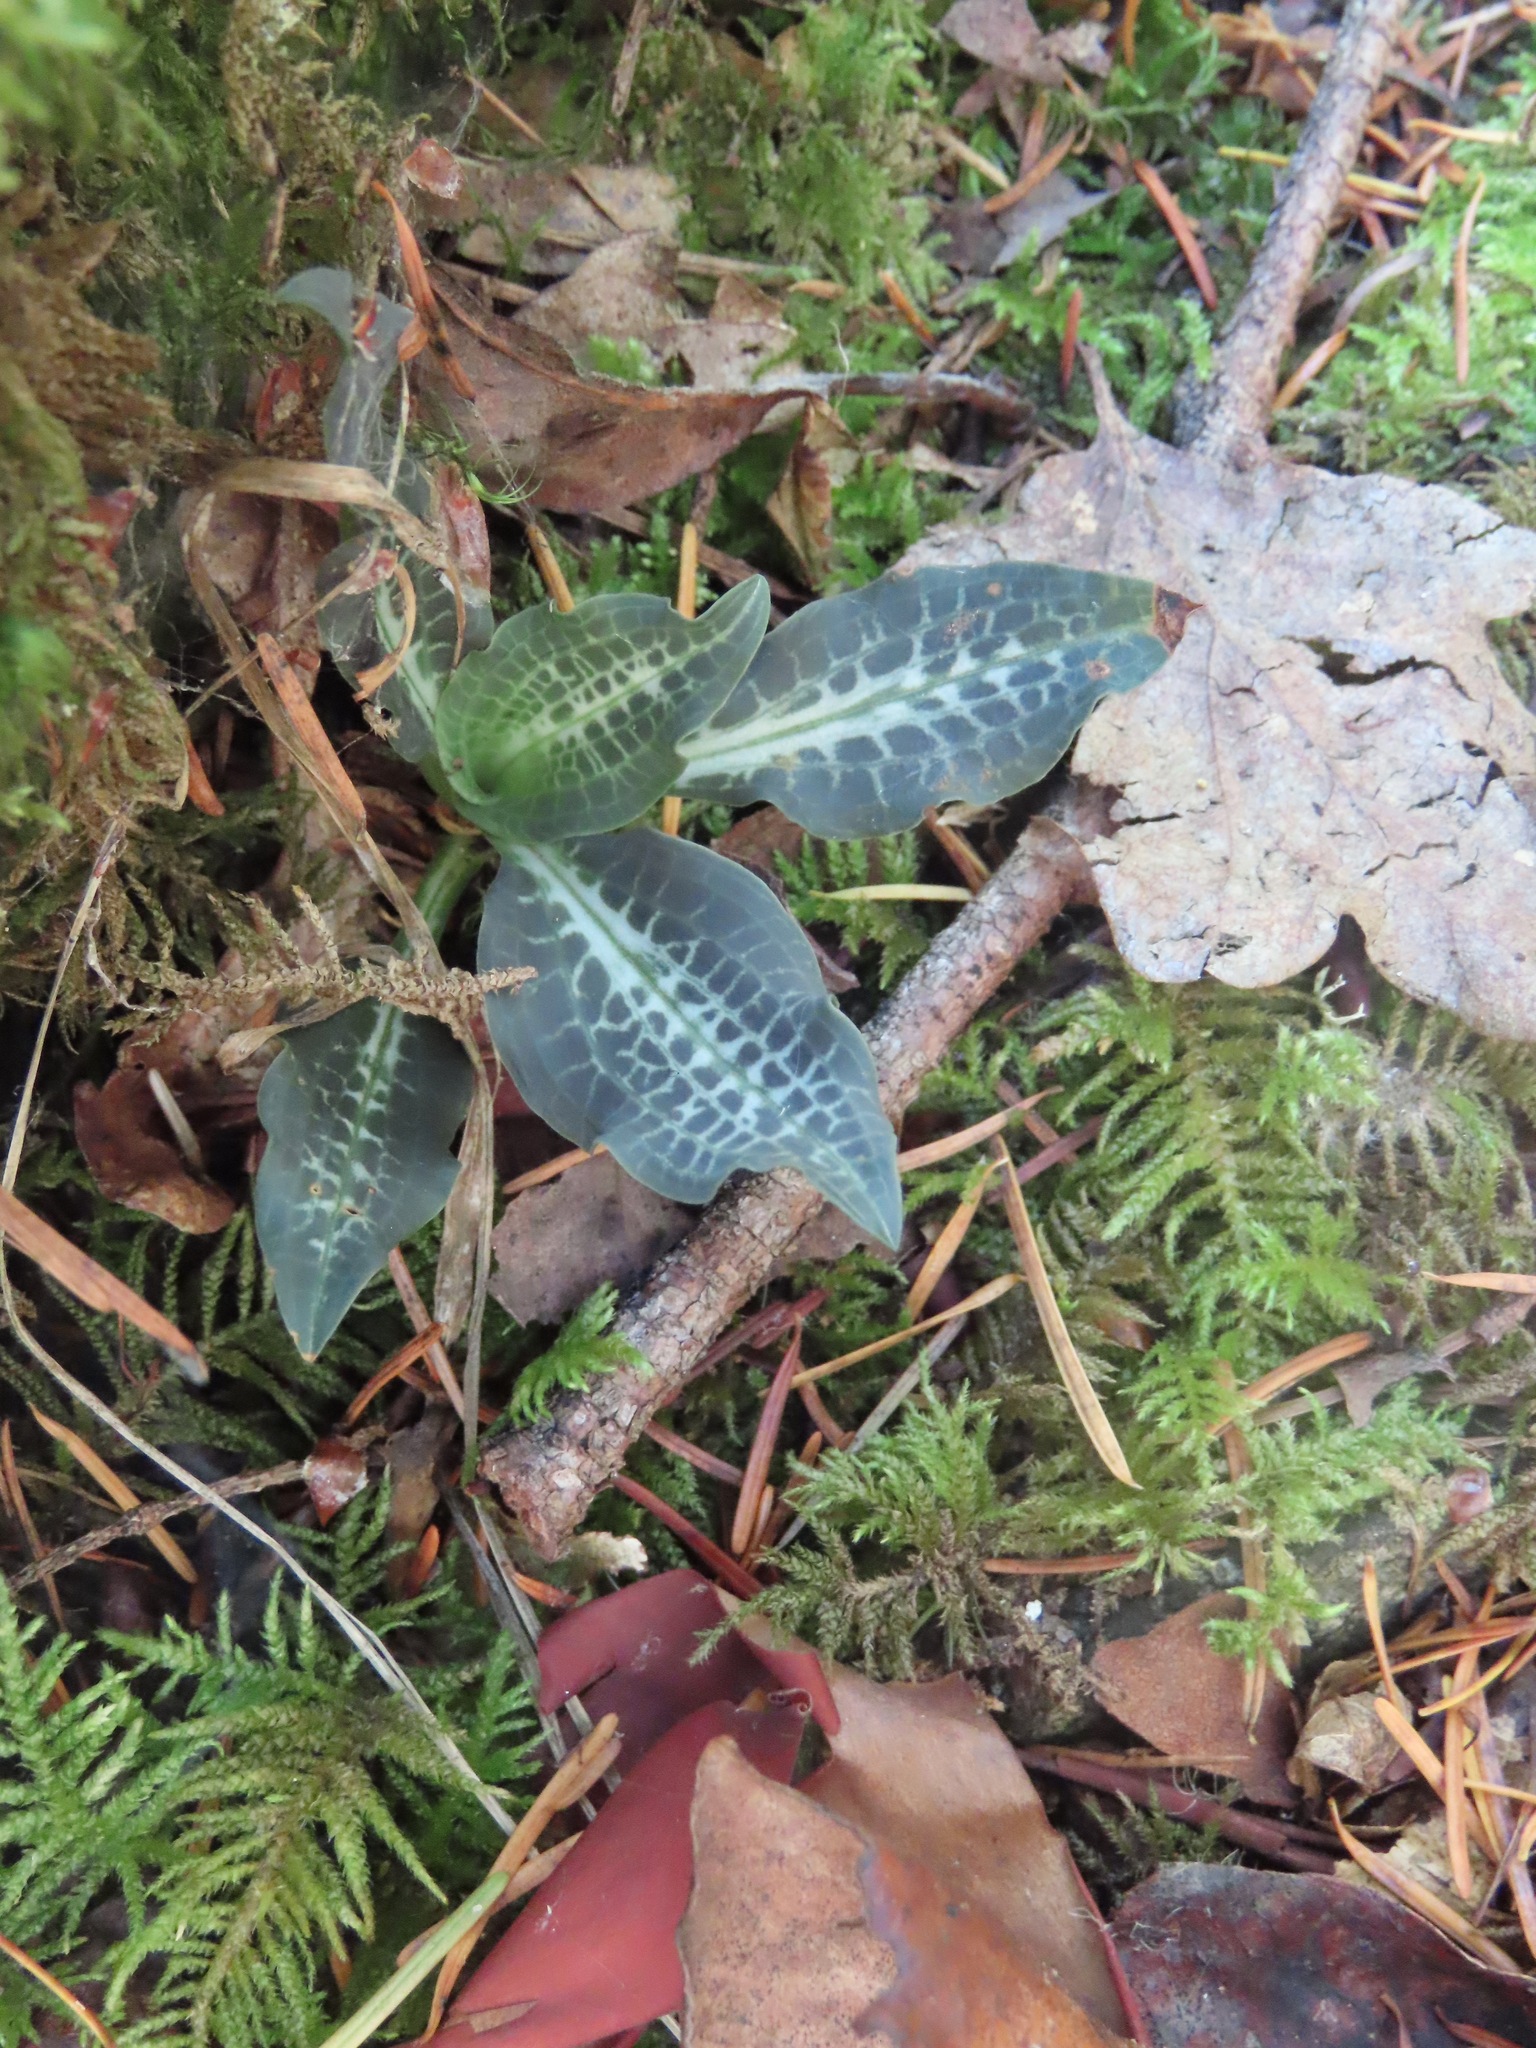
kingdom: Plantae
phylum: Tracheophyta
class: Liliopsida
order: Asparagales
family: Orchidaceae
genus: Goodyera
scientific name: Goodyera oblongifolia
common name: Giant rattlesnake-plantain
